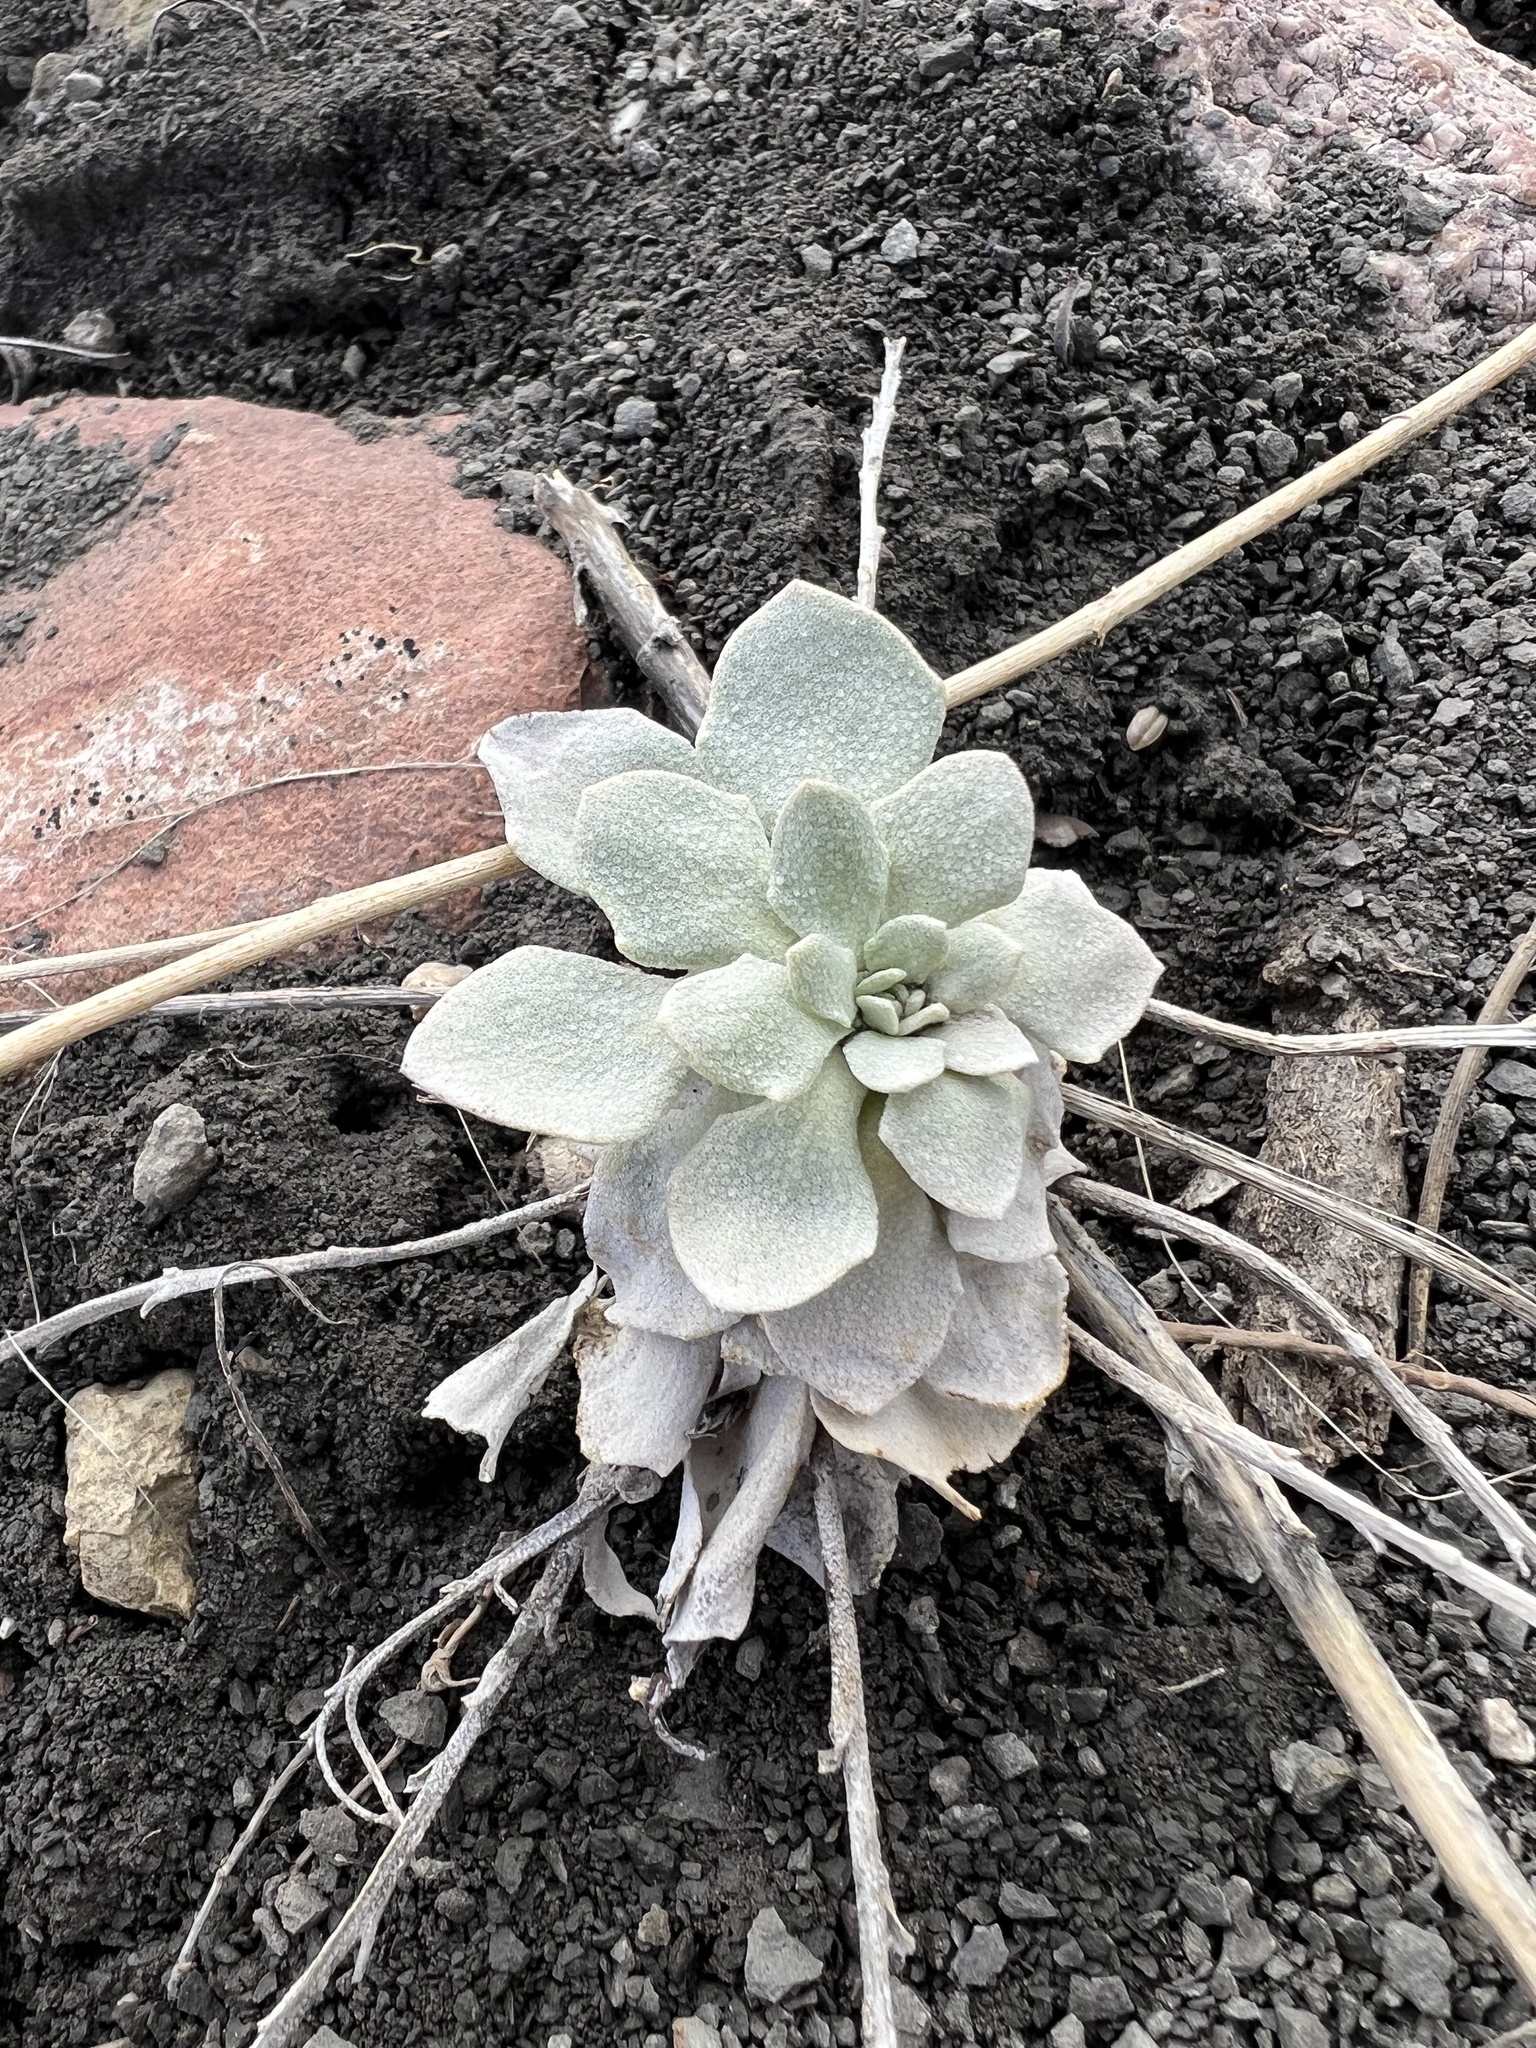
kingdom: Plantae
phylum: Tracheophyta
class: Magnoliopsida
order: Brassicales
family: Brassicaceae
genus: Physaria
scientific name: Physaria bellii
